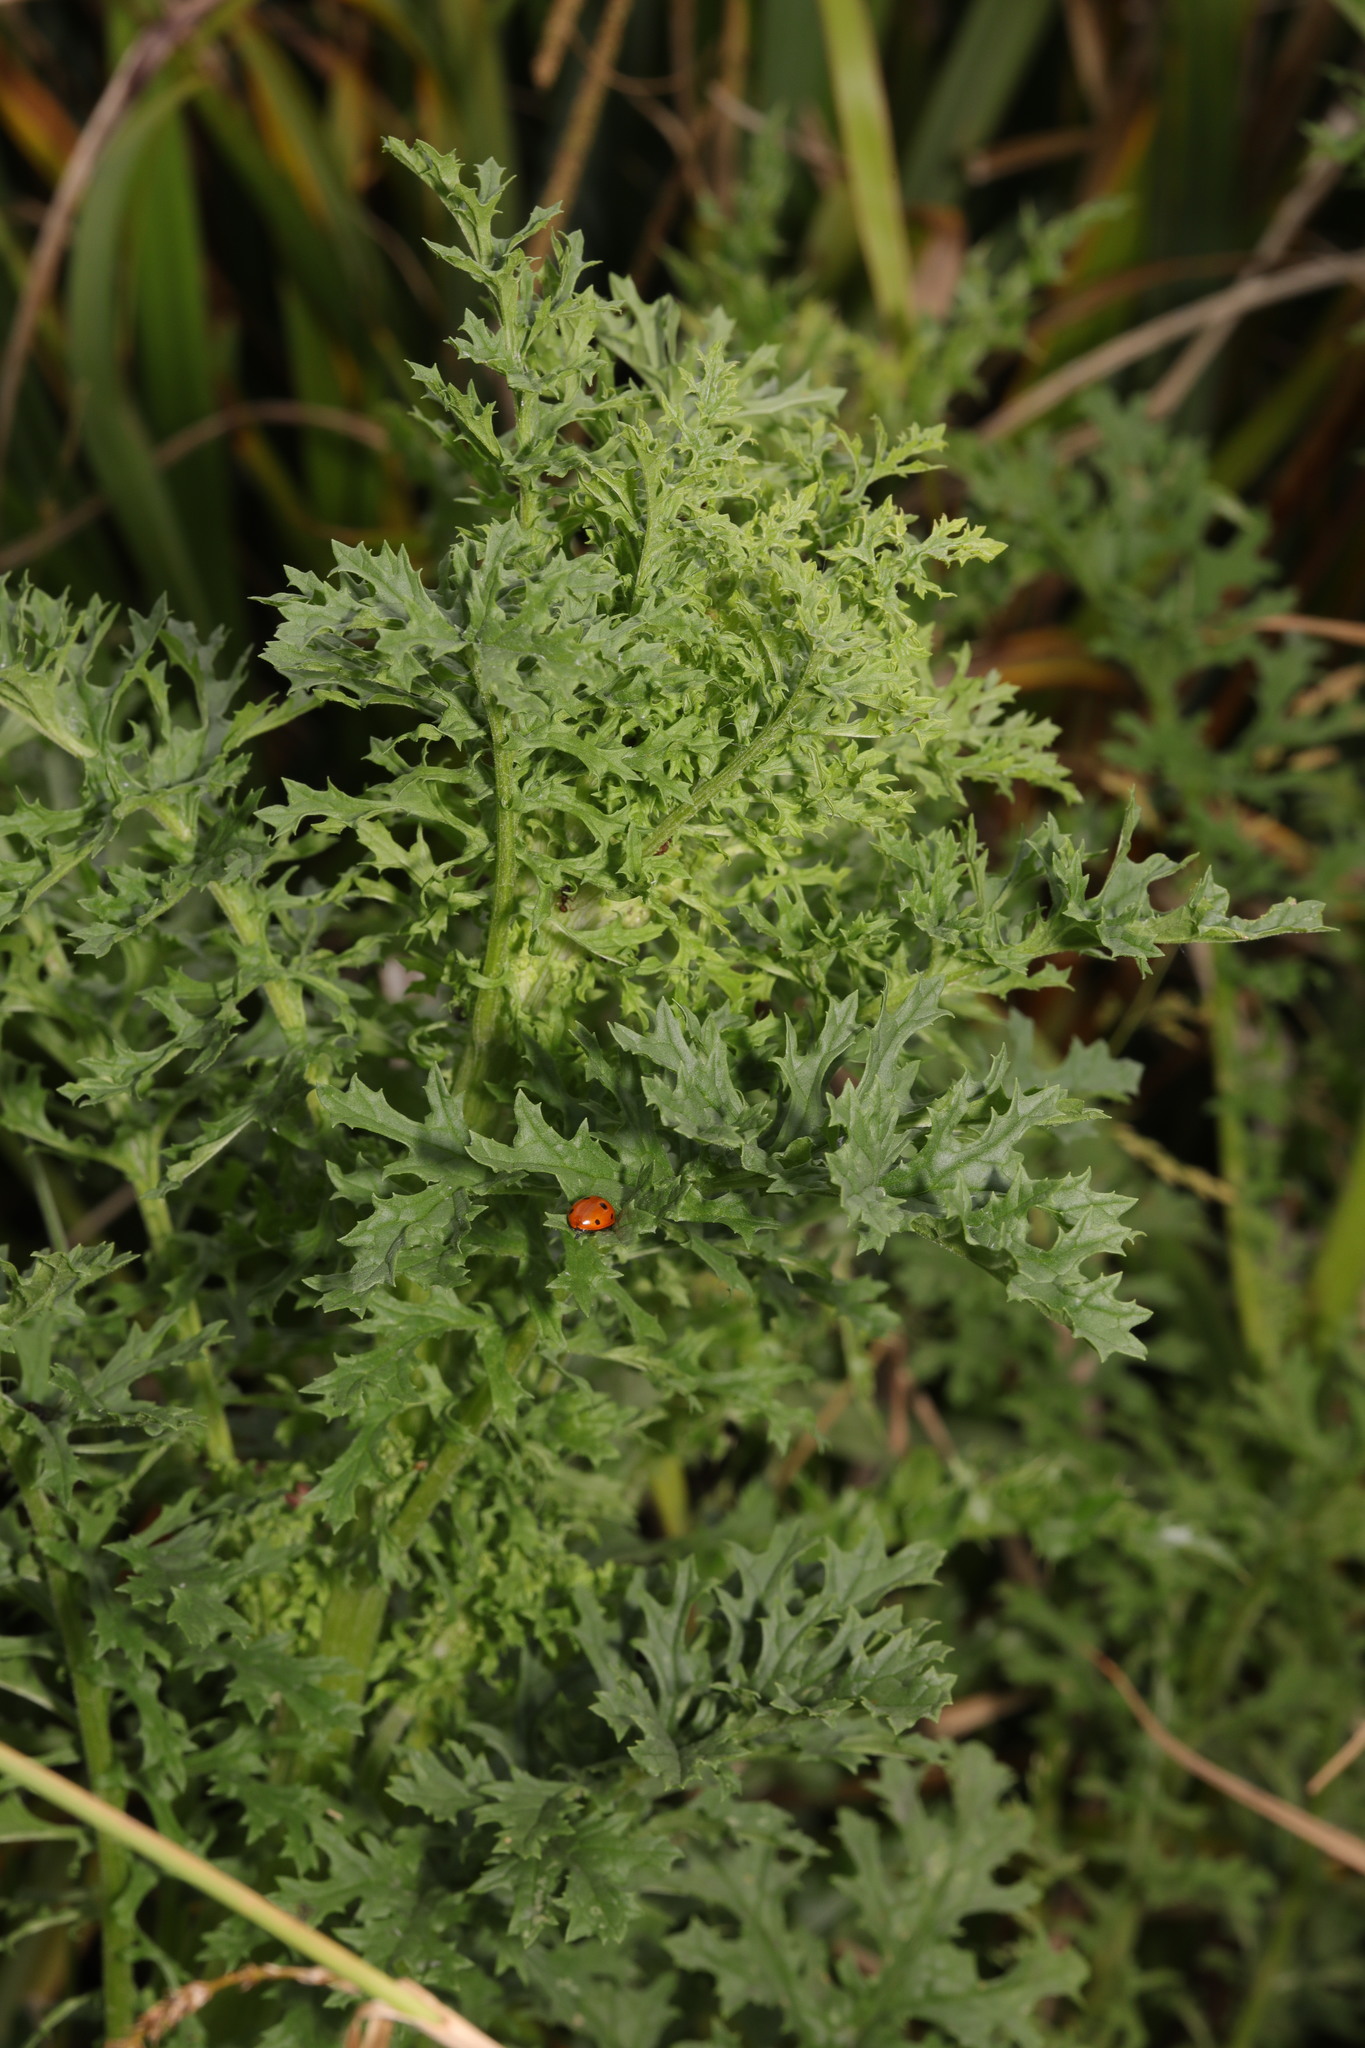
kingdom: Plantae
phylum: Tracheophyta
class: Magnoliopsida
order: Asterales
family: Asteraceae
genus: Jacobaea
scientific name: Jacobaea vulgaris
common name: Stinking willie
